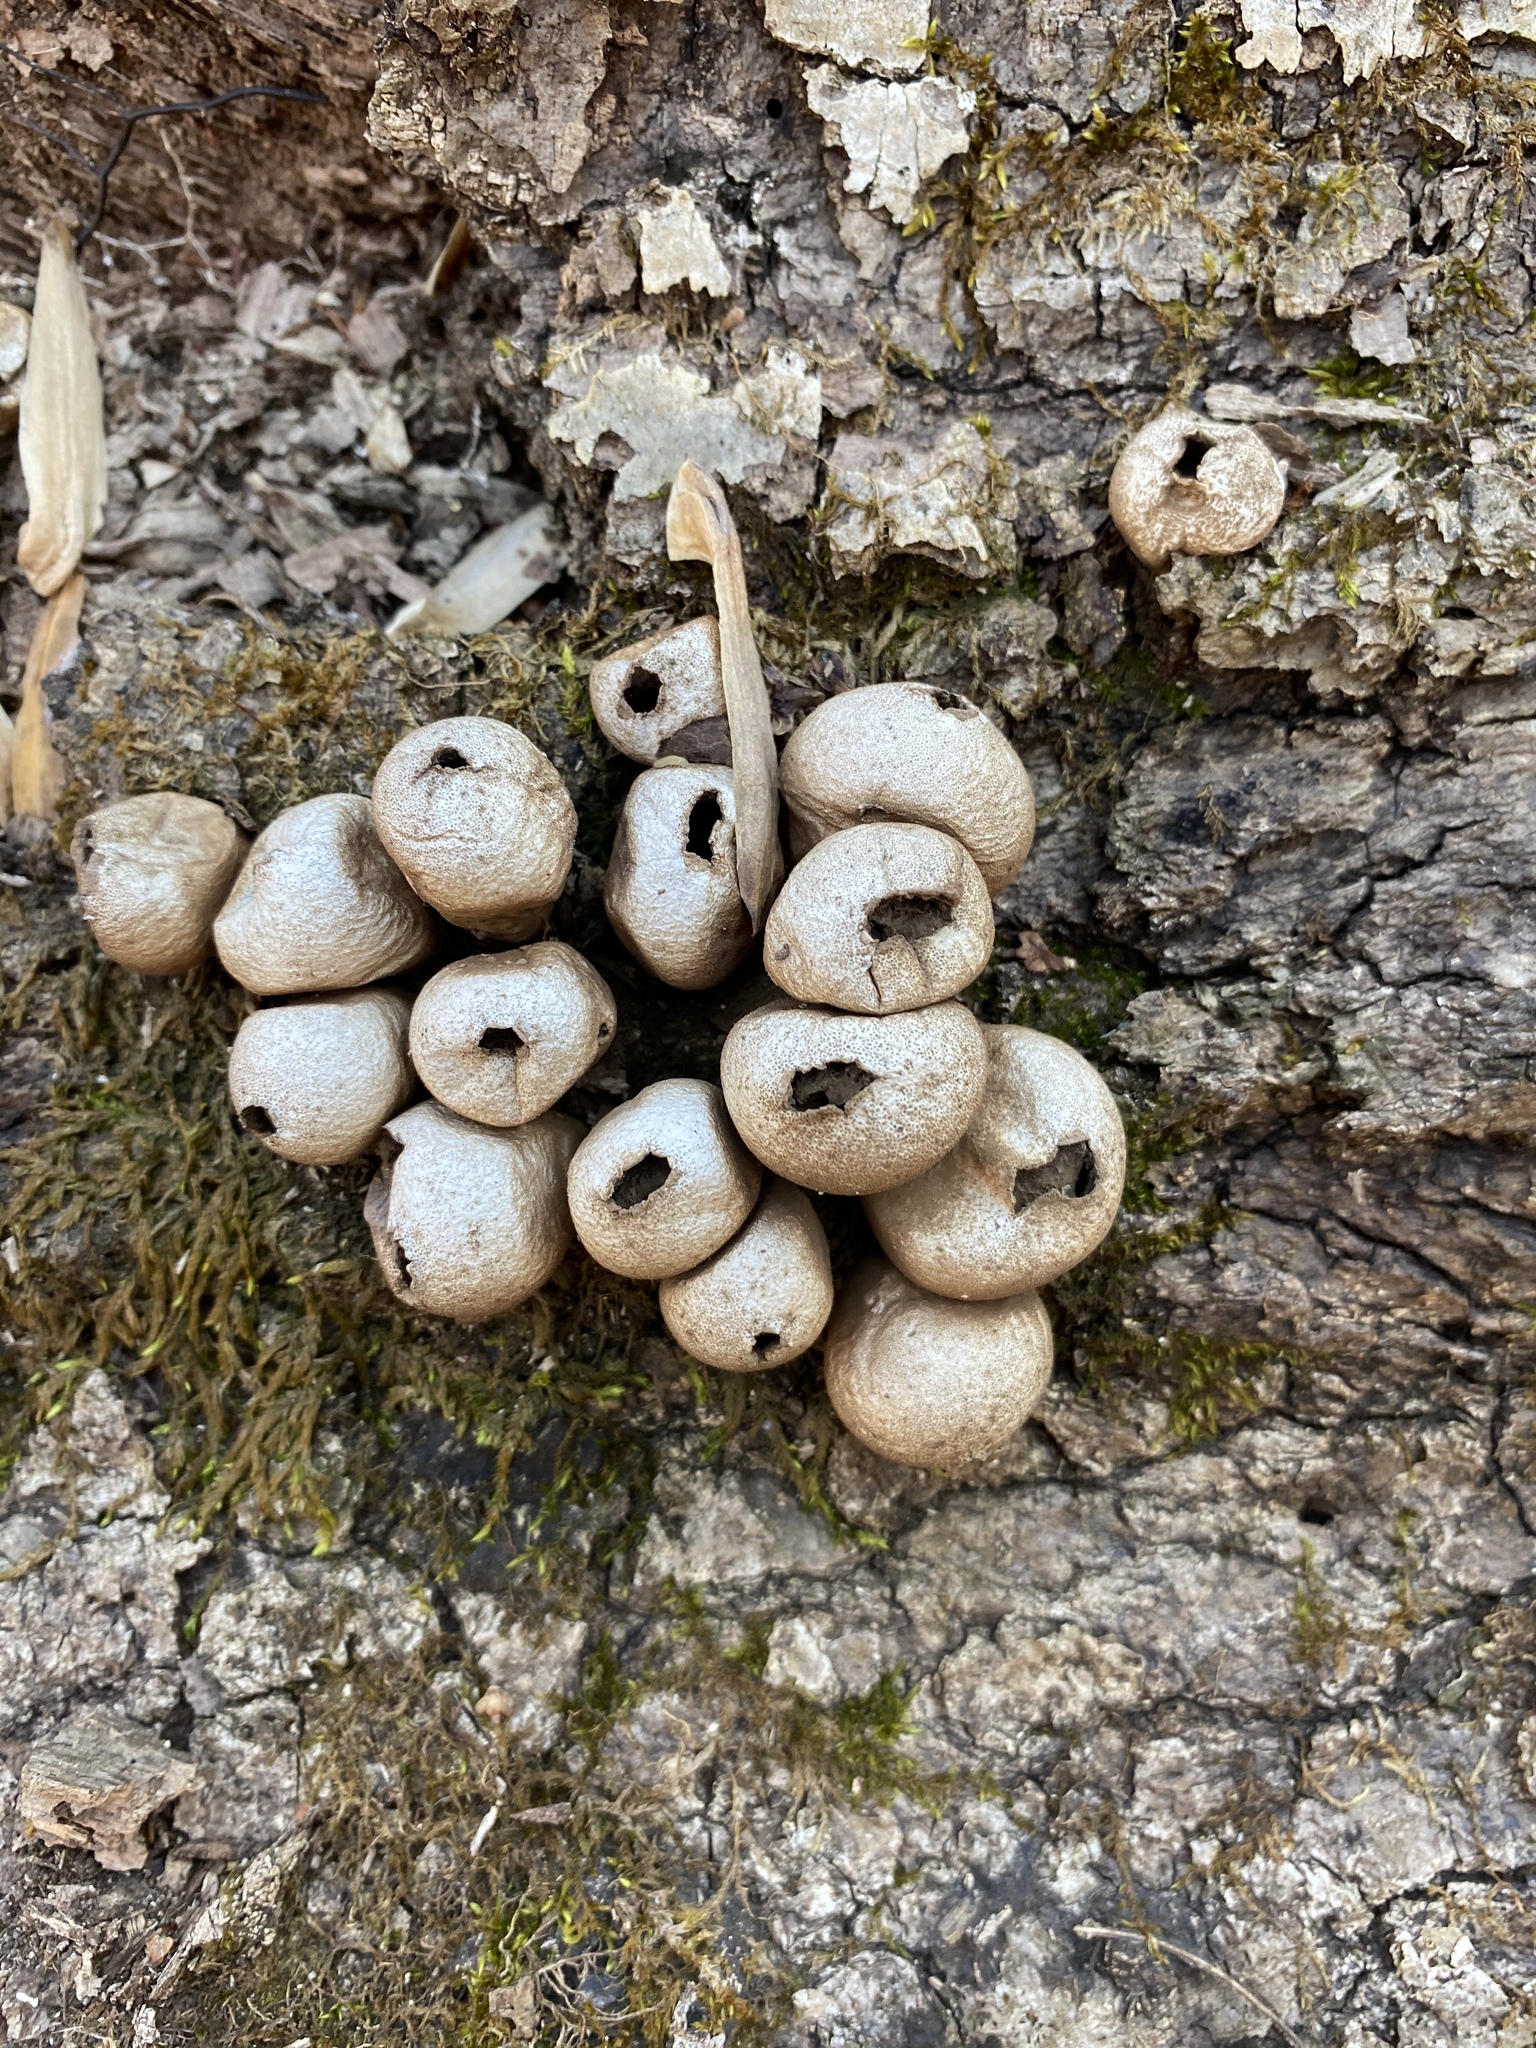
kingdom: Fungi
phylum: Basidiomycota
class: Agaricomycetes
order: Agaricales
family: Lycoperdaceae
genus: Apioperdon
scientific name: Apioperdon pyriforme
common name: Pear-shaped puffball
